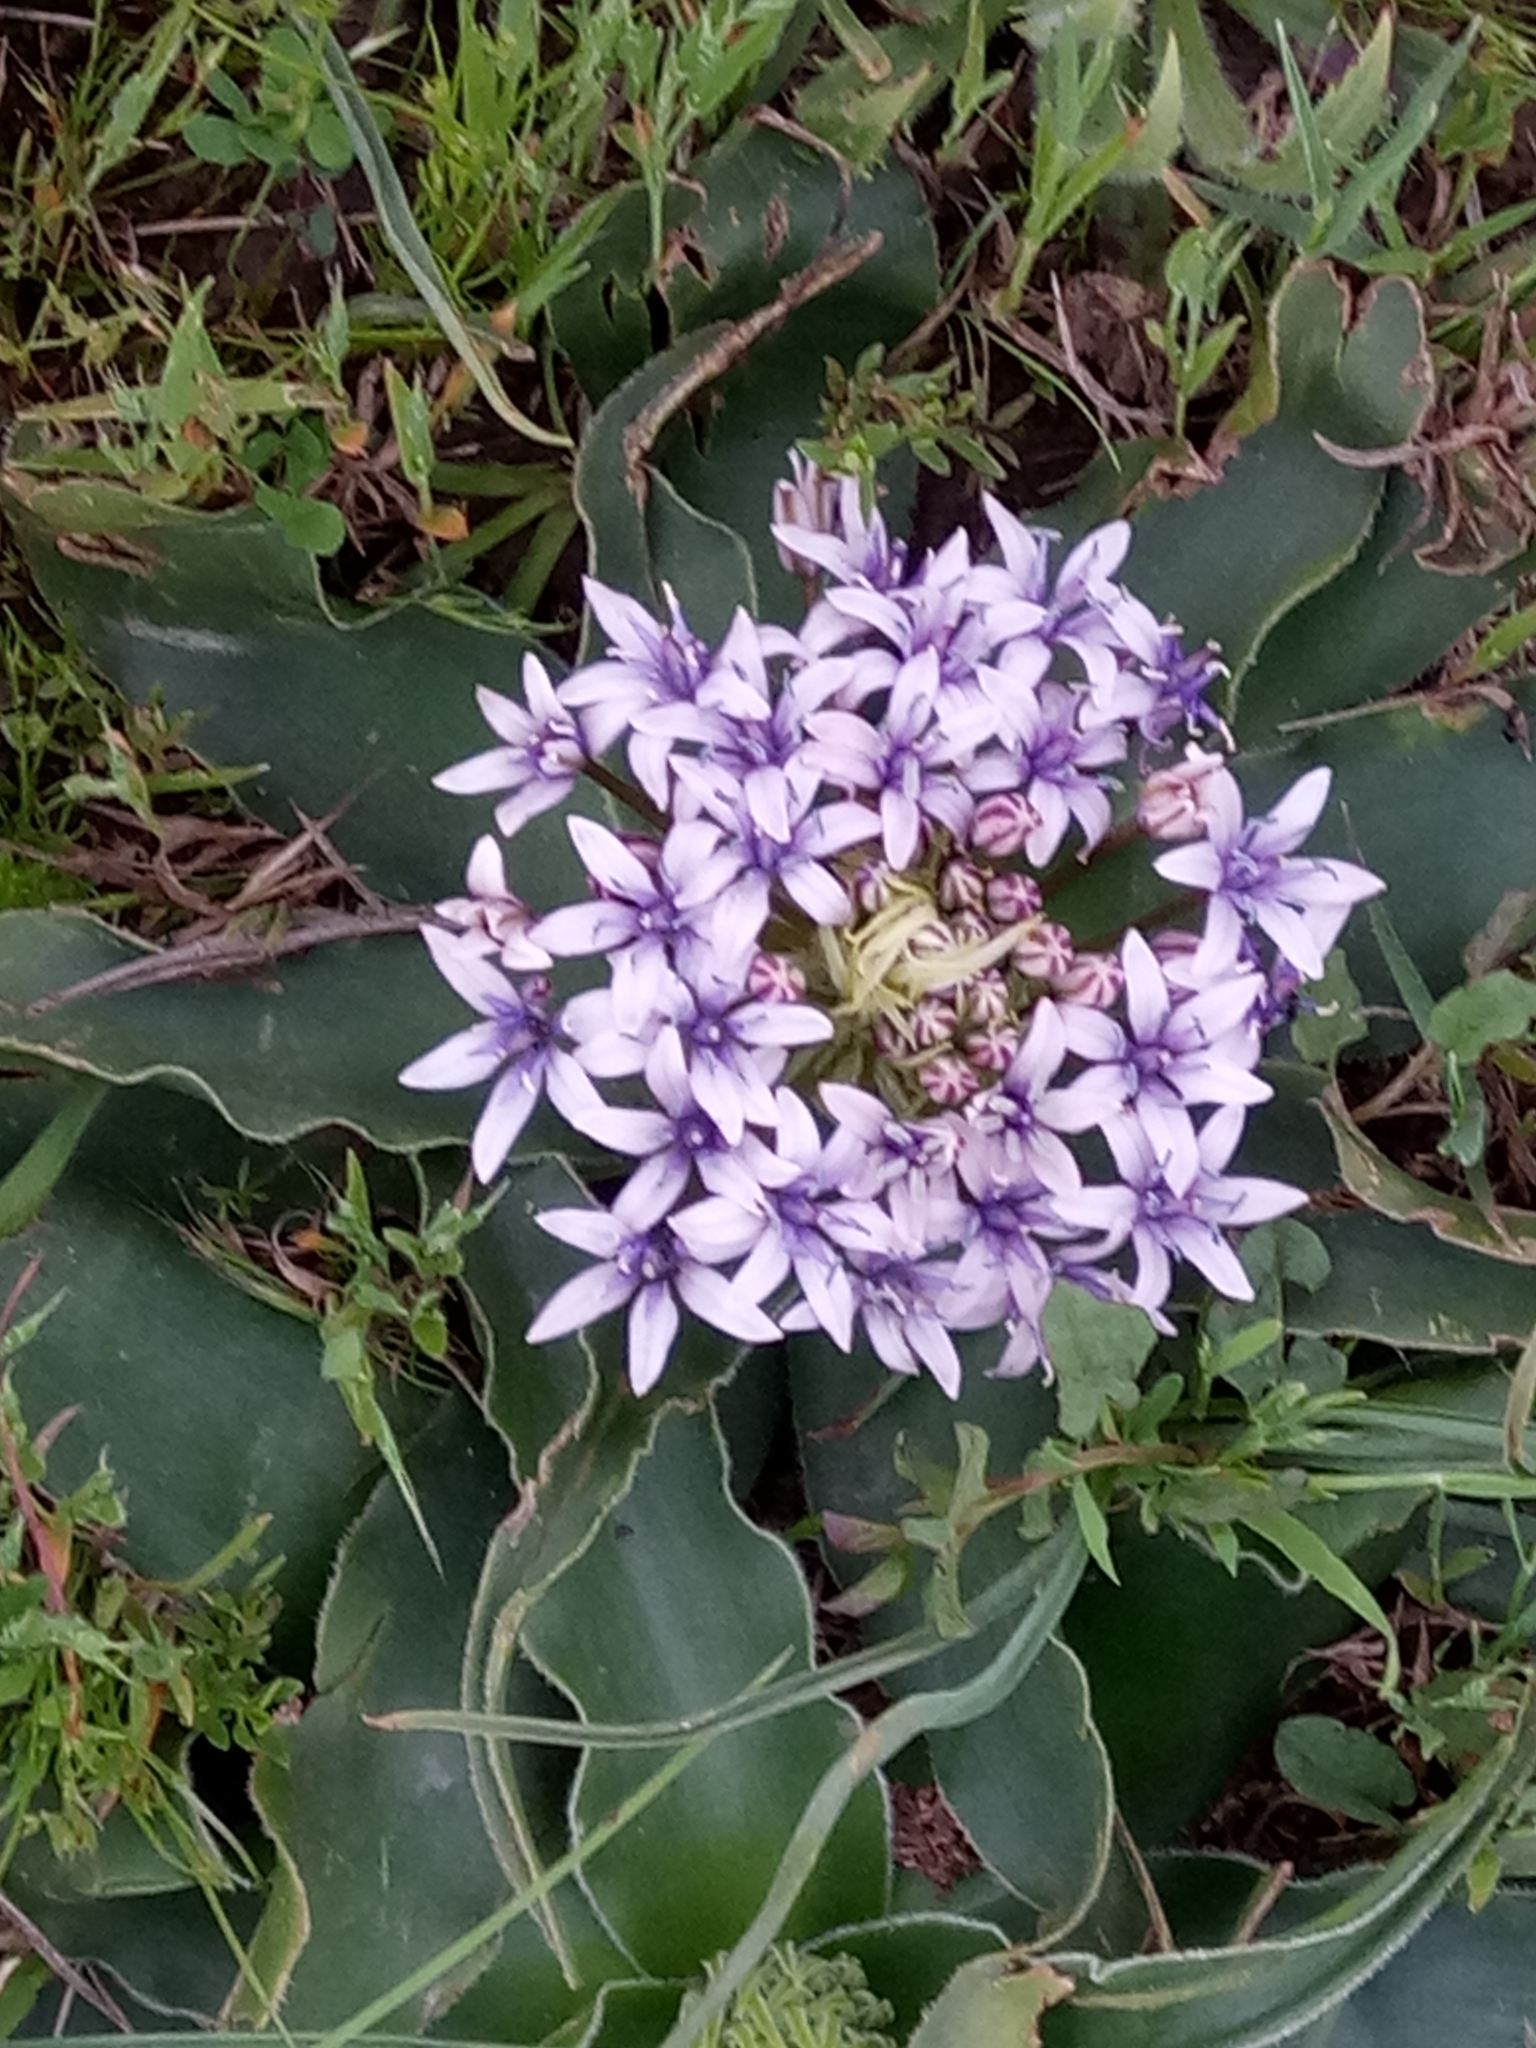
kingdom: Plantae
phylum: Tracheophyta
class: Liliopsida
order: Asparagales
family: Asparagaceae
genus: Scilla
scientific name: Scilla peruviana
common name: Portuguese squill
